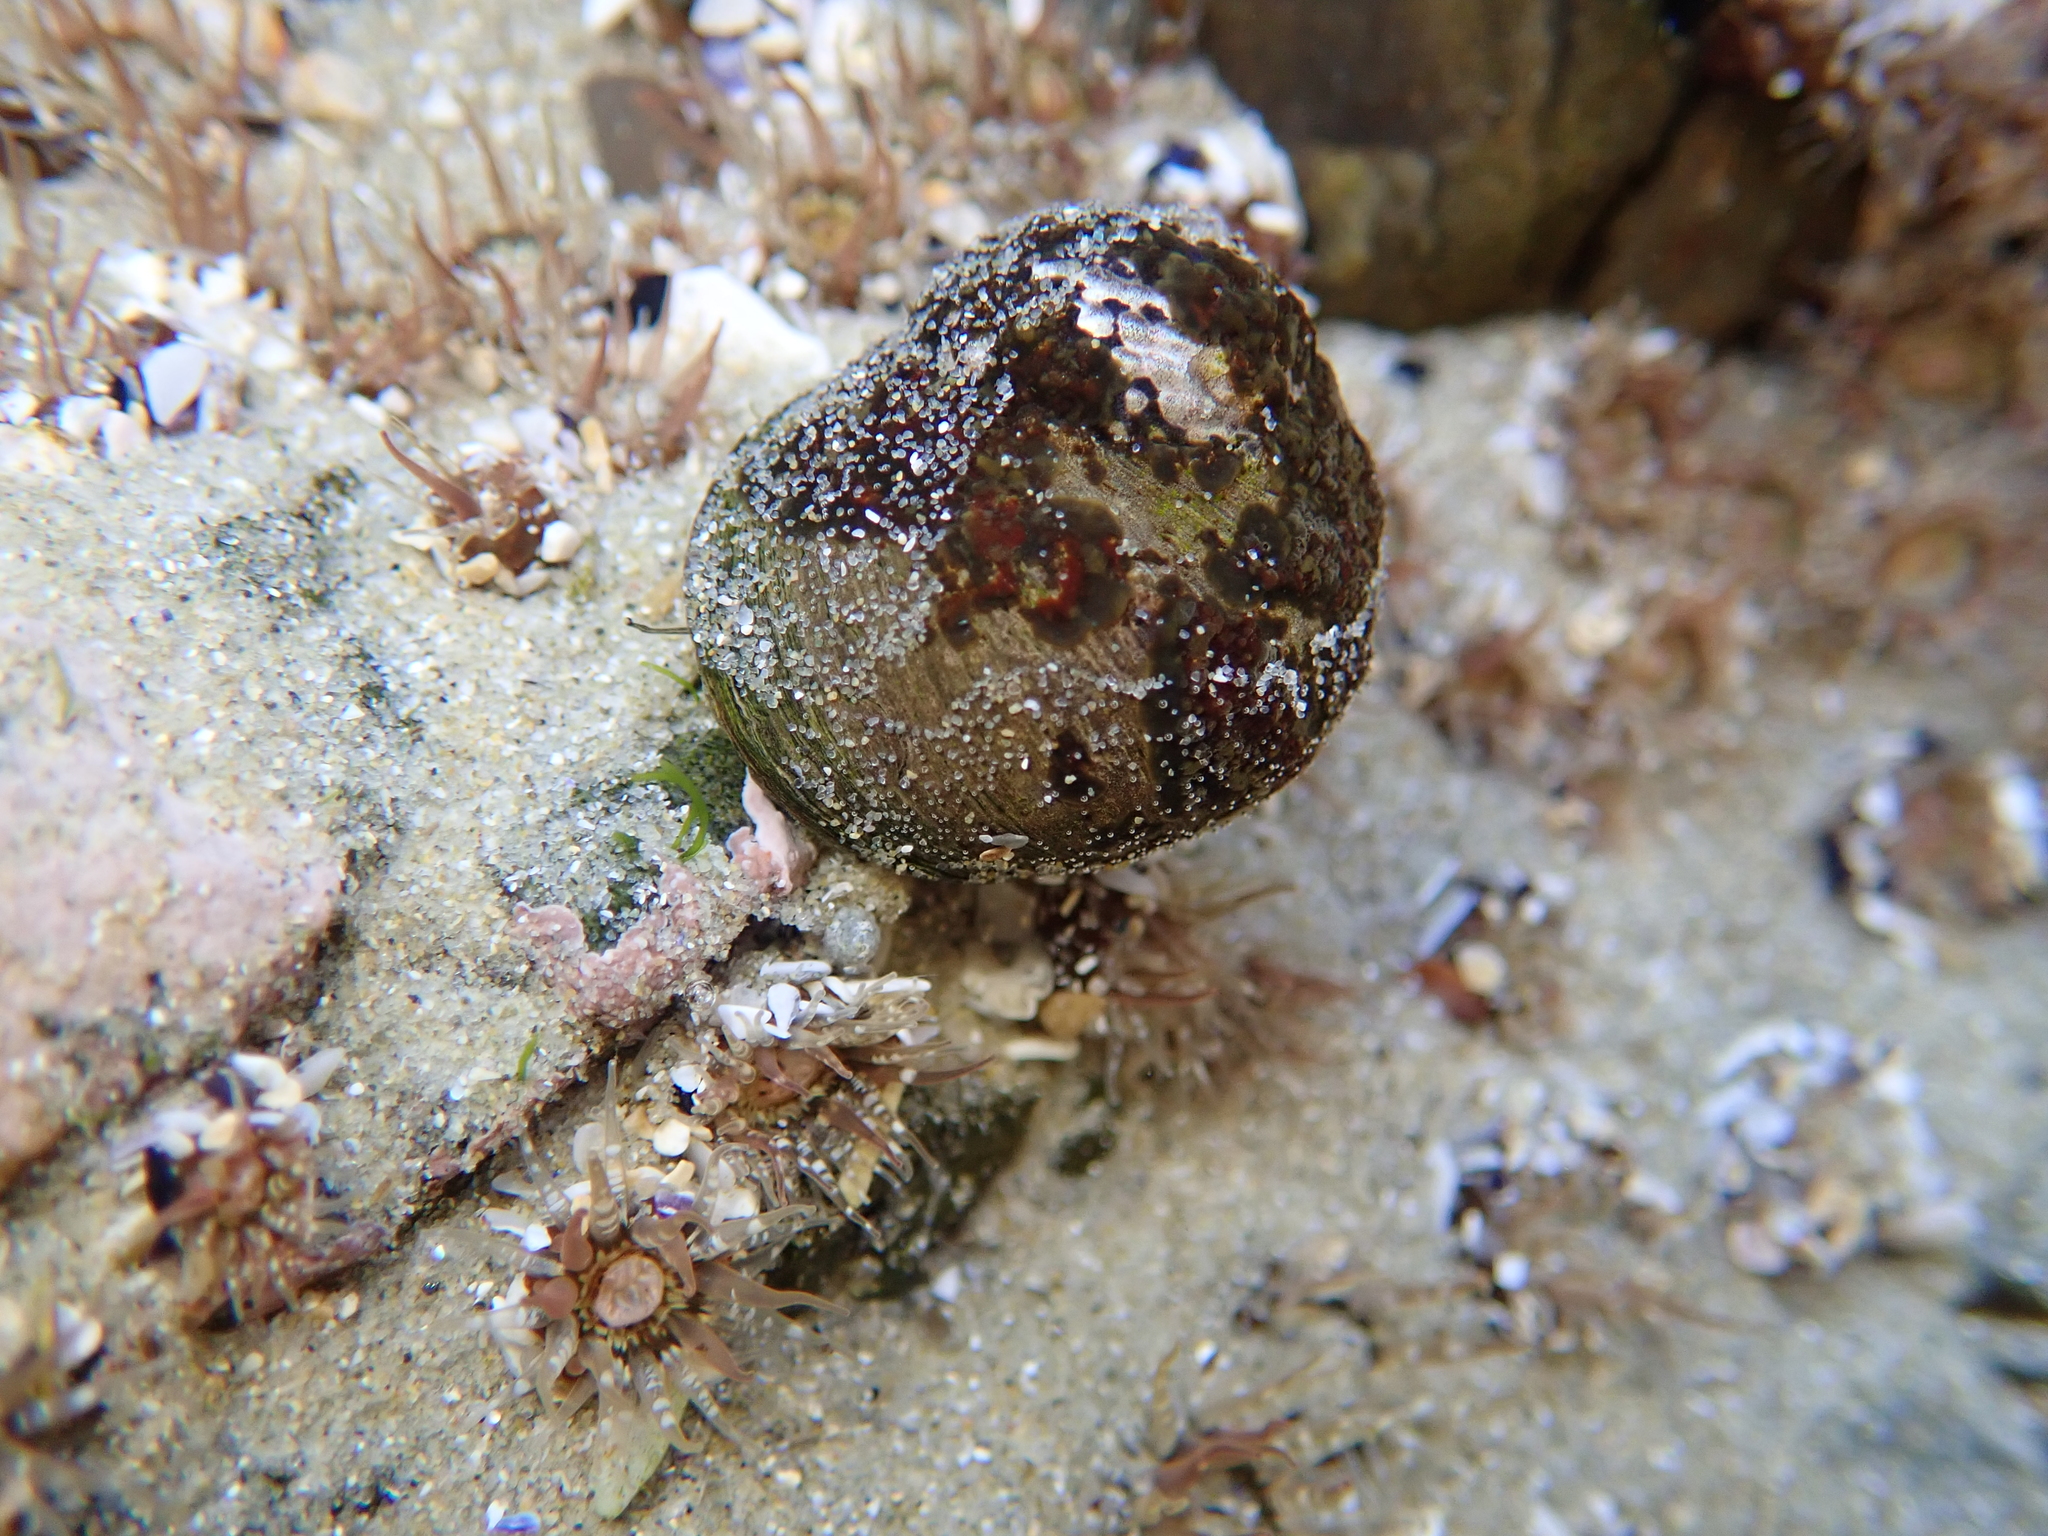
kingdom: Animalia
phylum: Mollusca
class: Gastropoda
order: Trochida
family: Trochidae
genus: Diloma
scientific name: Diloma aethiops
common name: Scorched monodont
